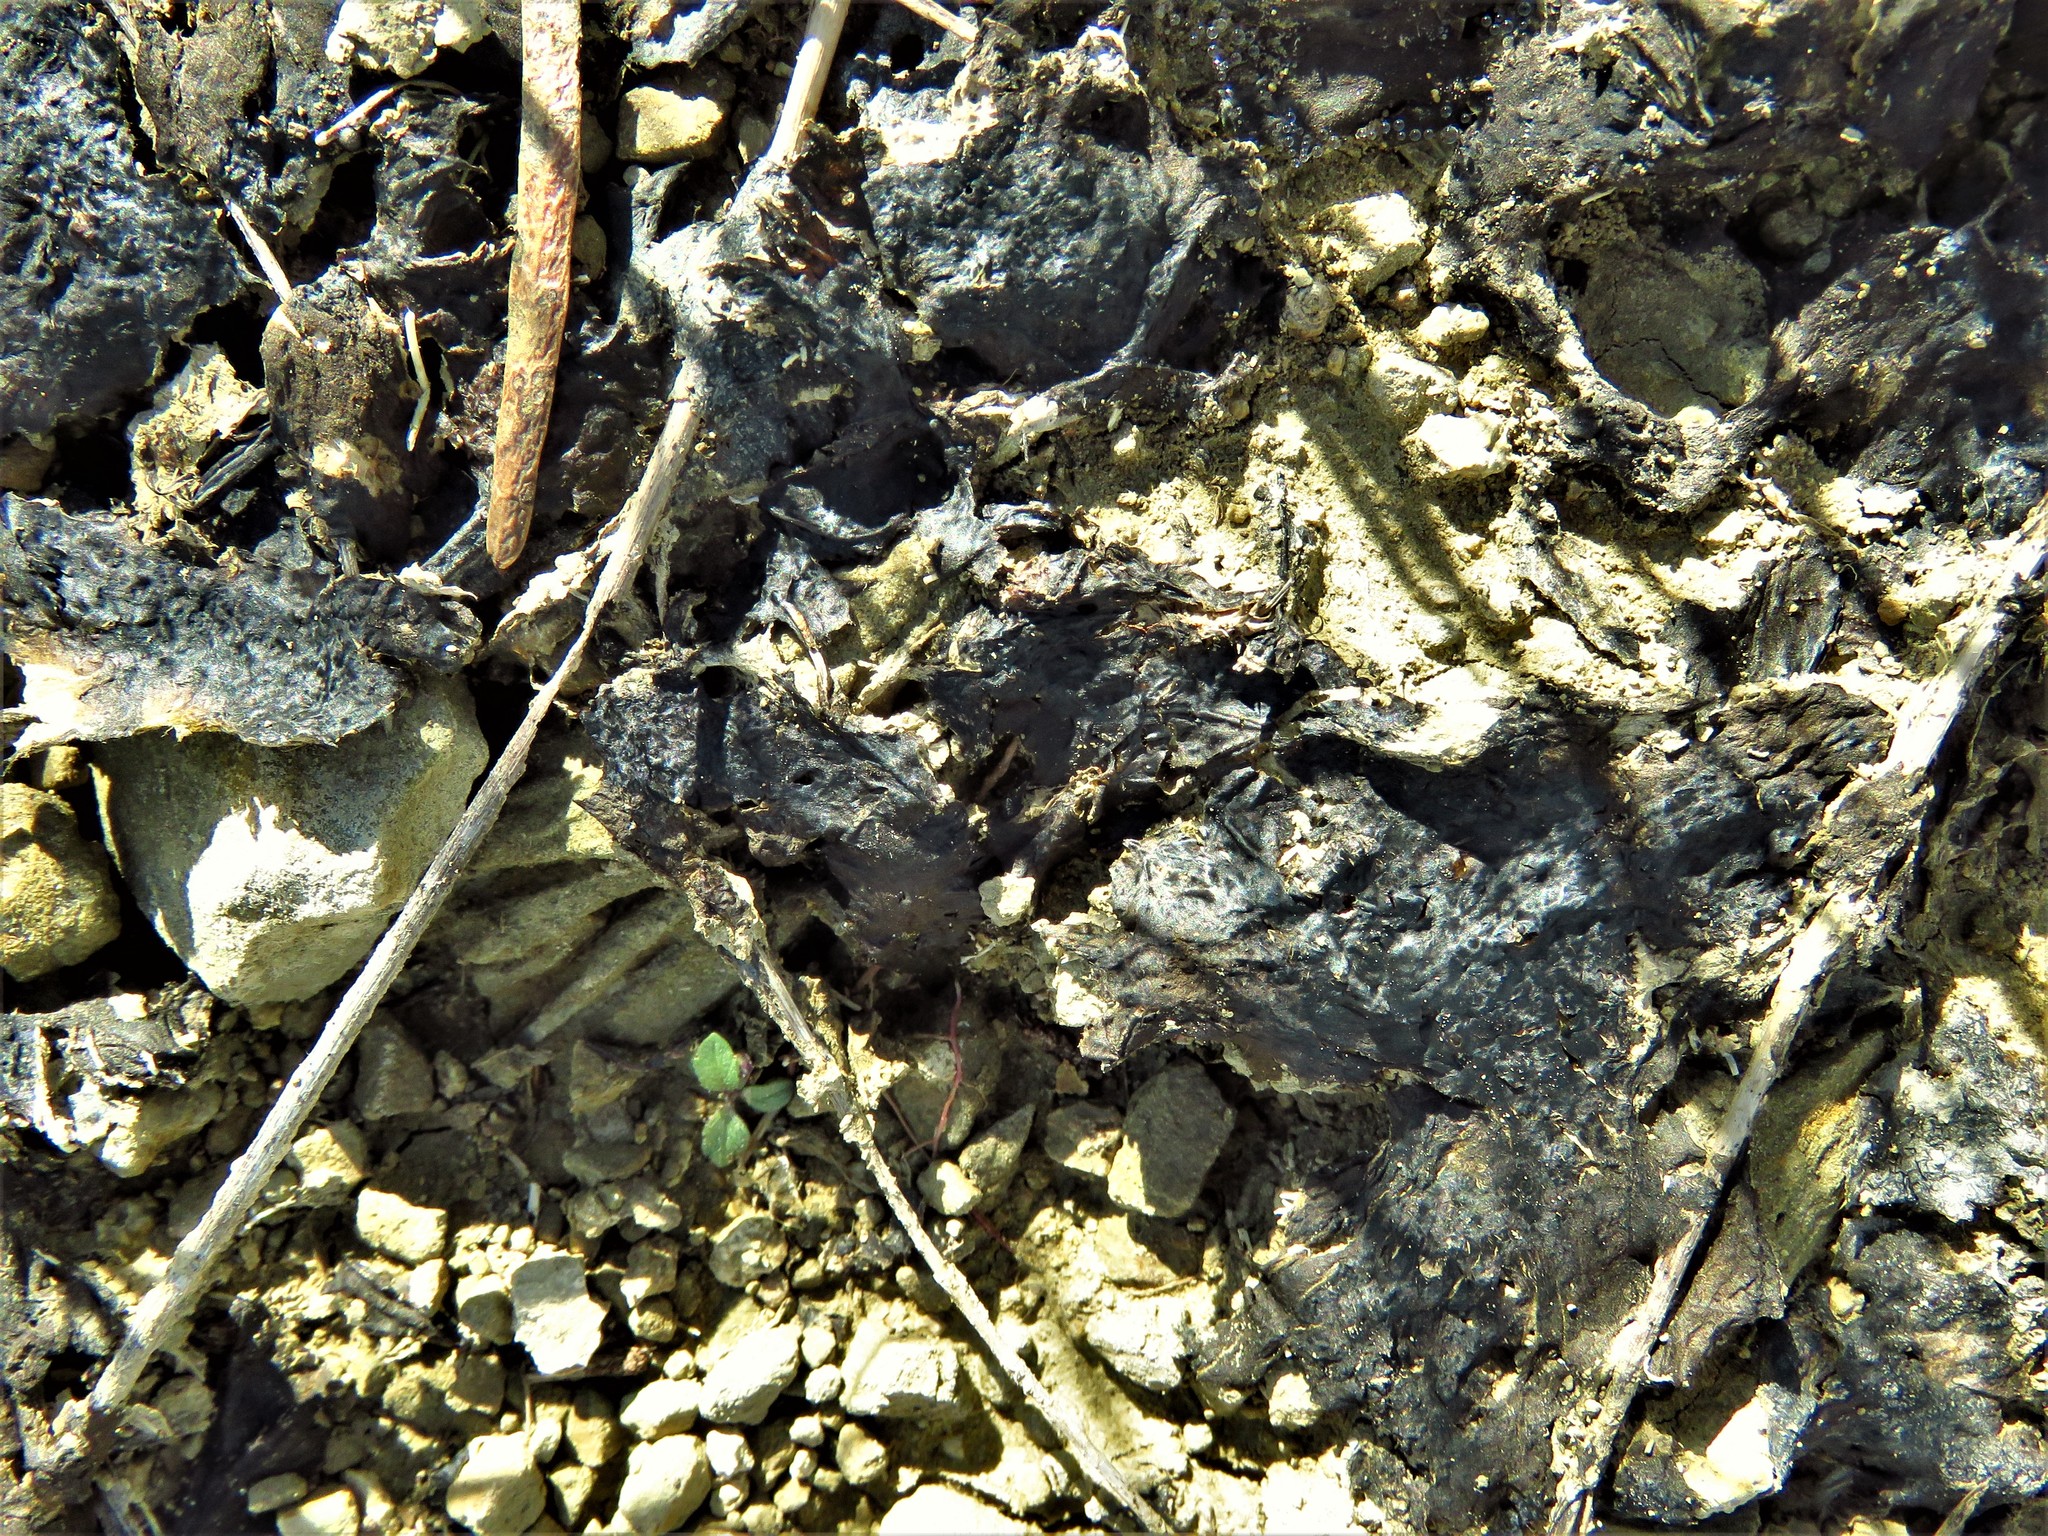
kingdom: Bacteria
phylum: Cyanobacteria
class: Cyanobacteriia
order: Cyanobacteriales
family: Nostocaceae
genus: Nostoc
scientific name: Nostoc commune
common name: Star jelly
